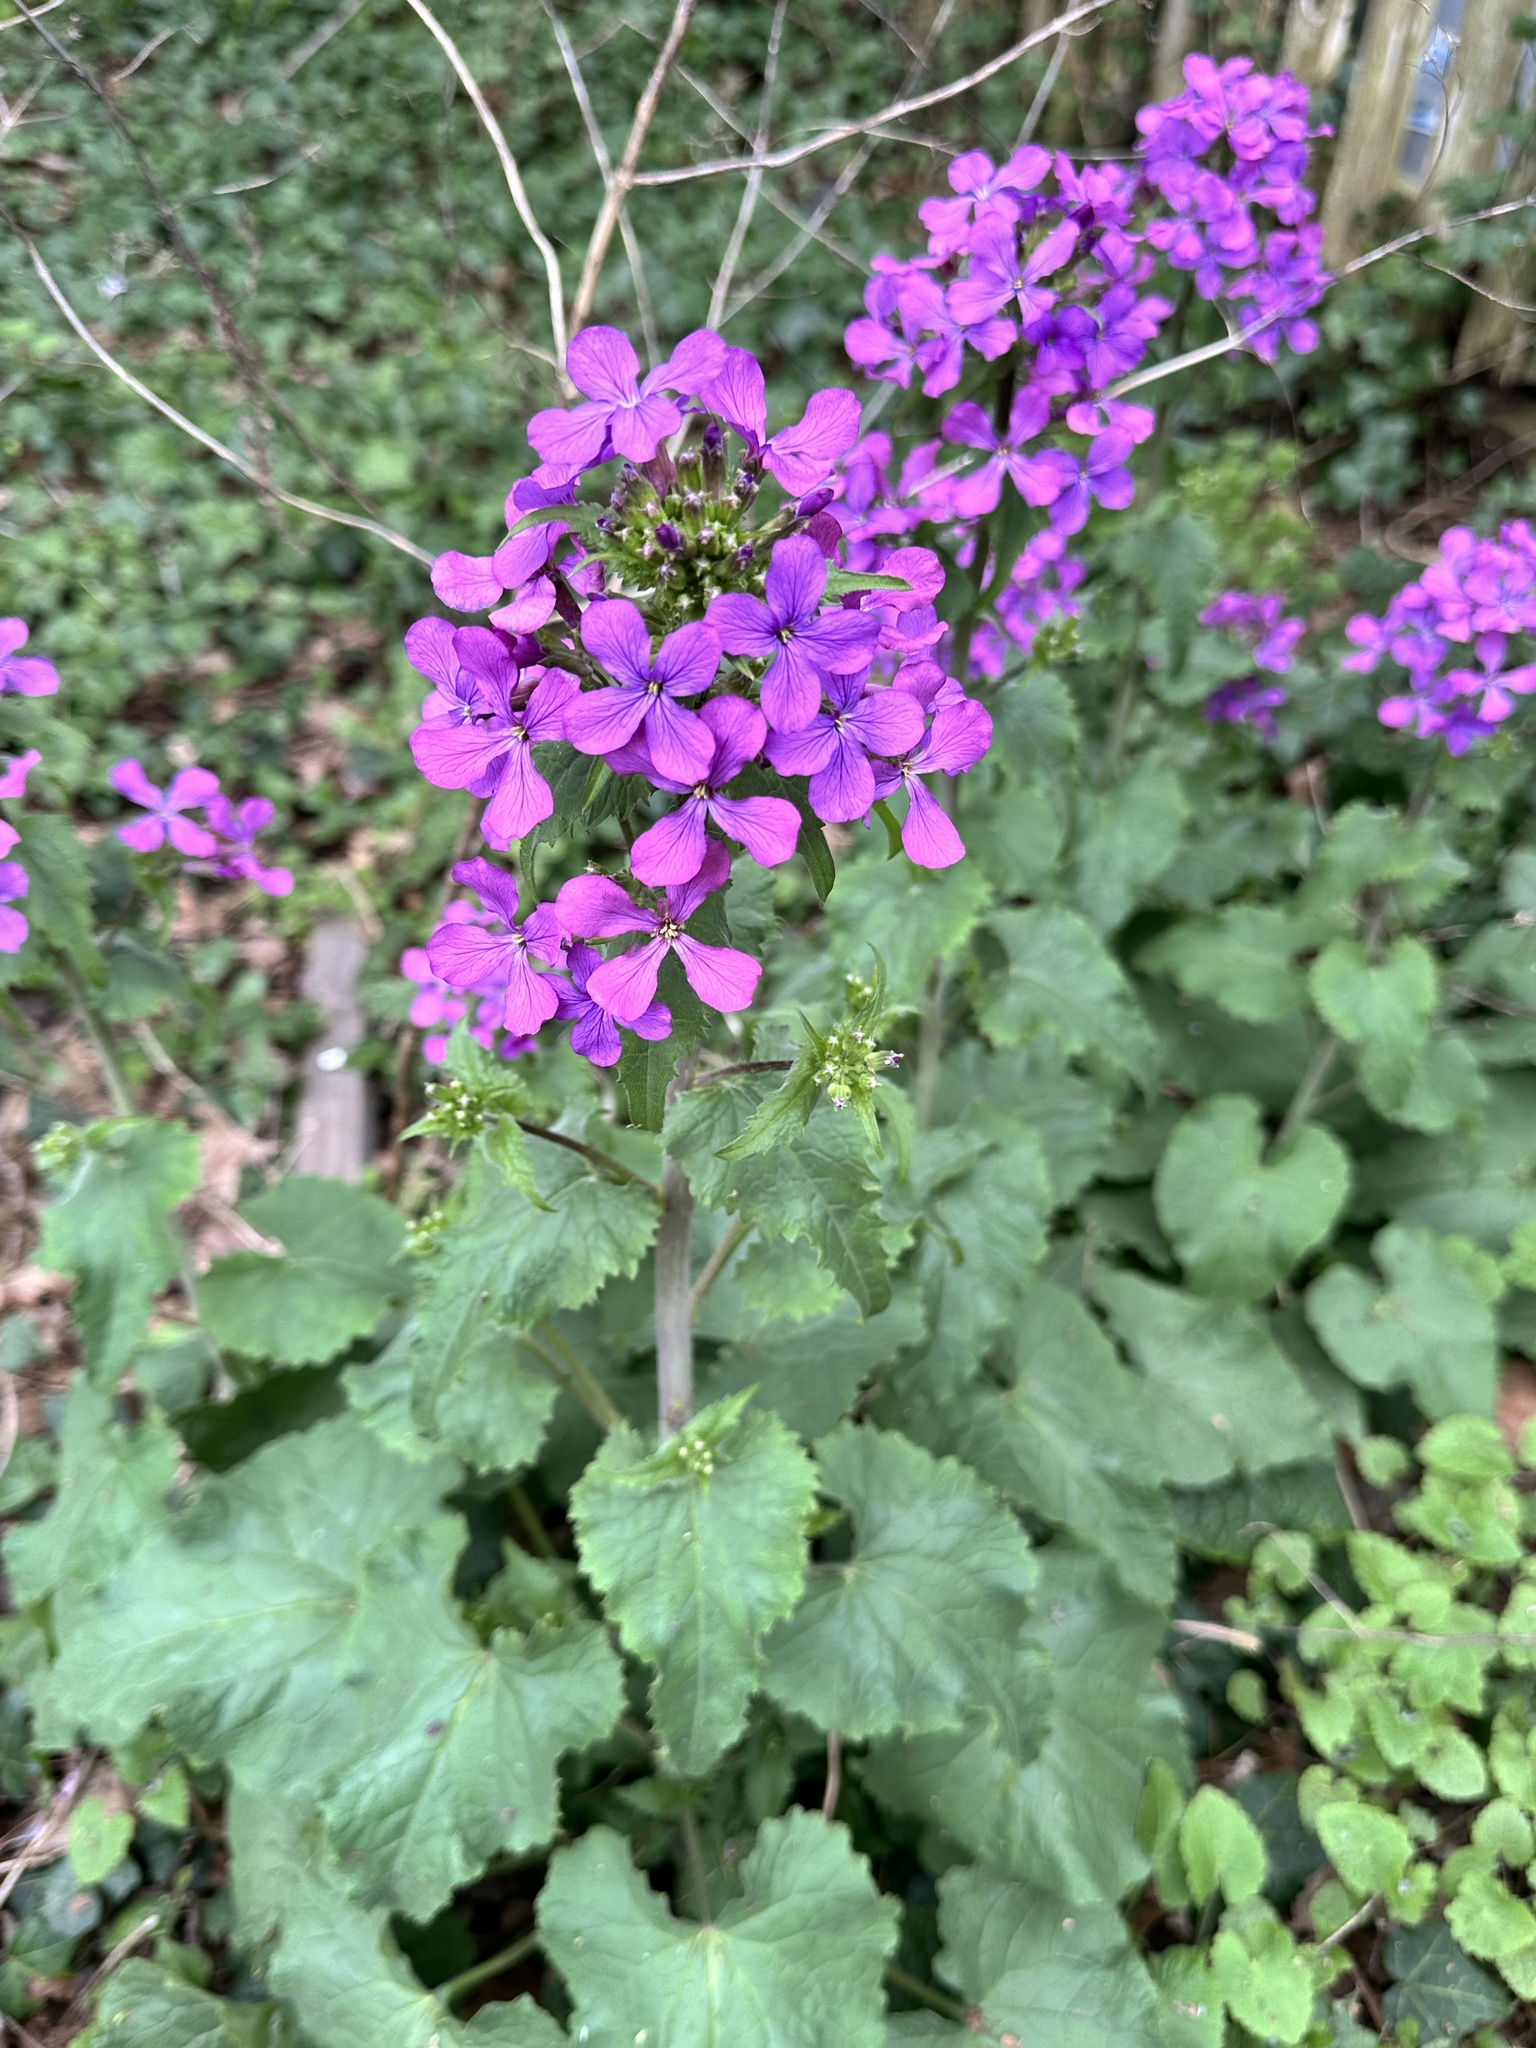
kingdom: Plantae
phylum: Tracheophyta
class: Magnoliopsida
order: Brassicales
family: Brassicaceae
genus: Lunaria
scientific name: Lunaria annua
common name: Honesty
